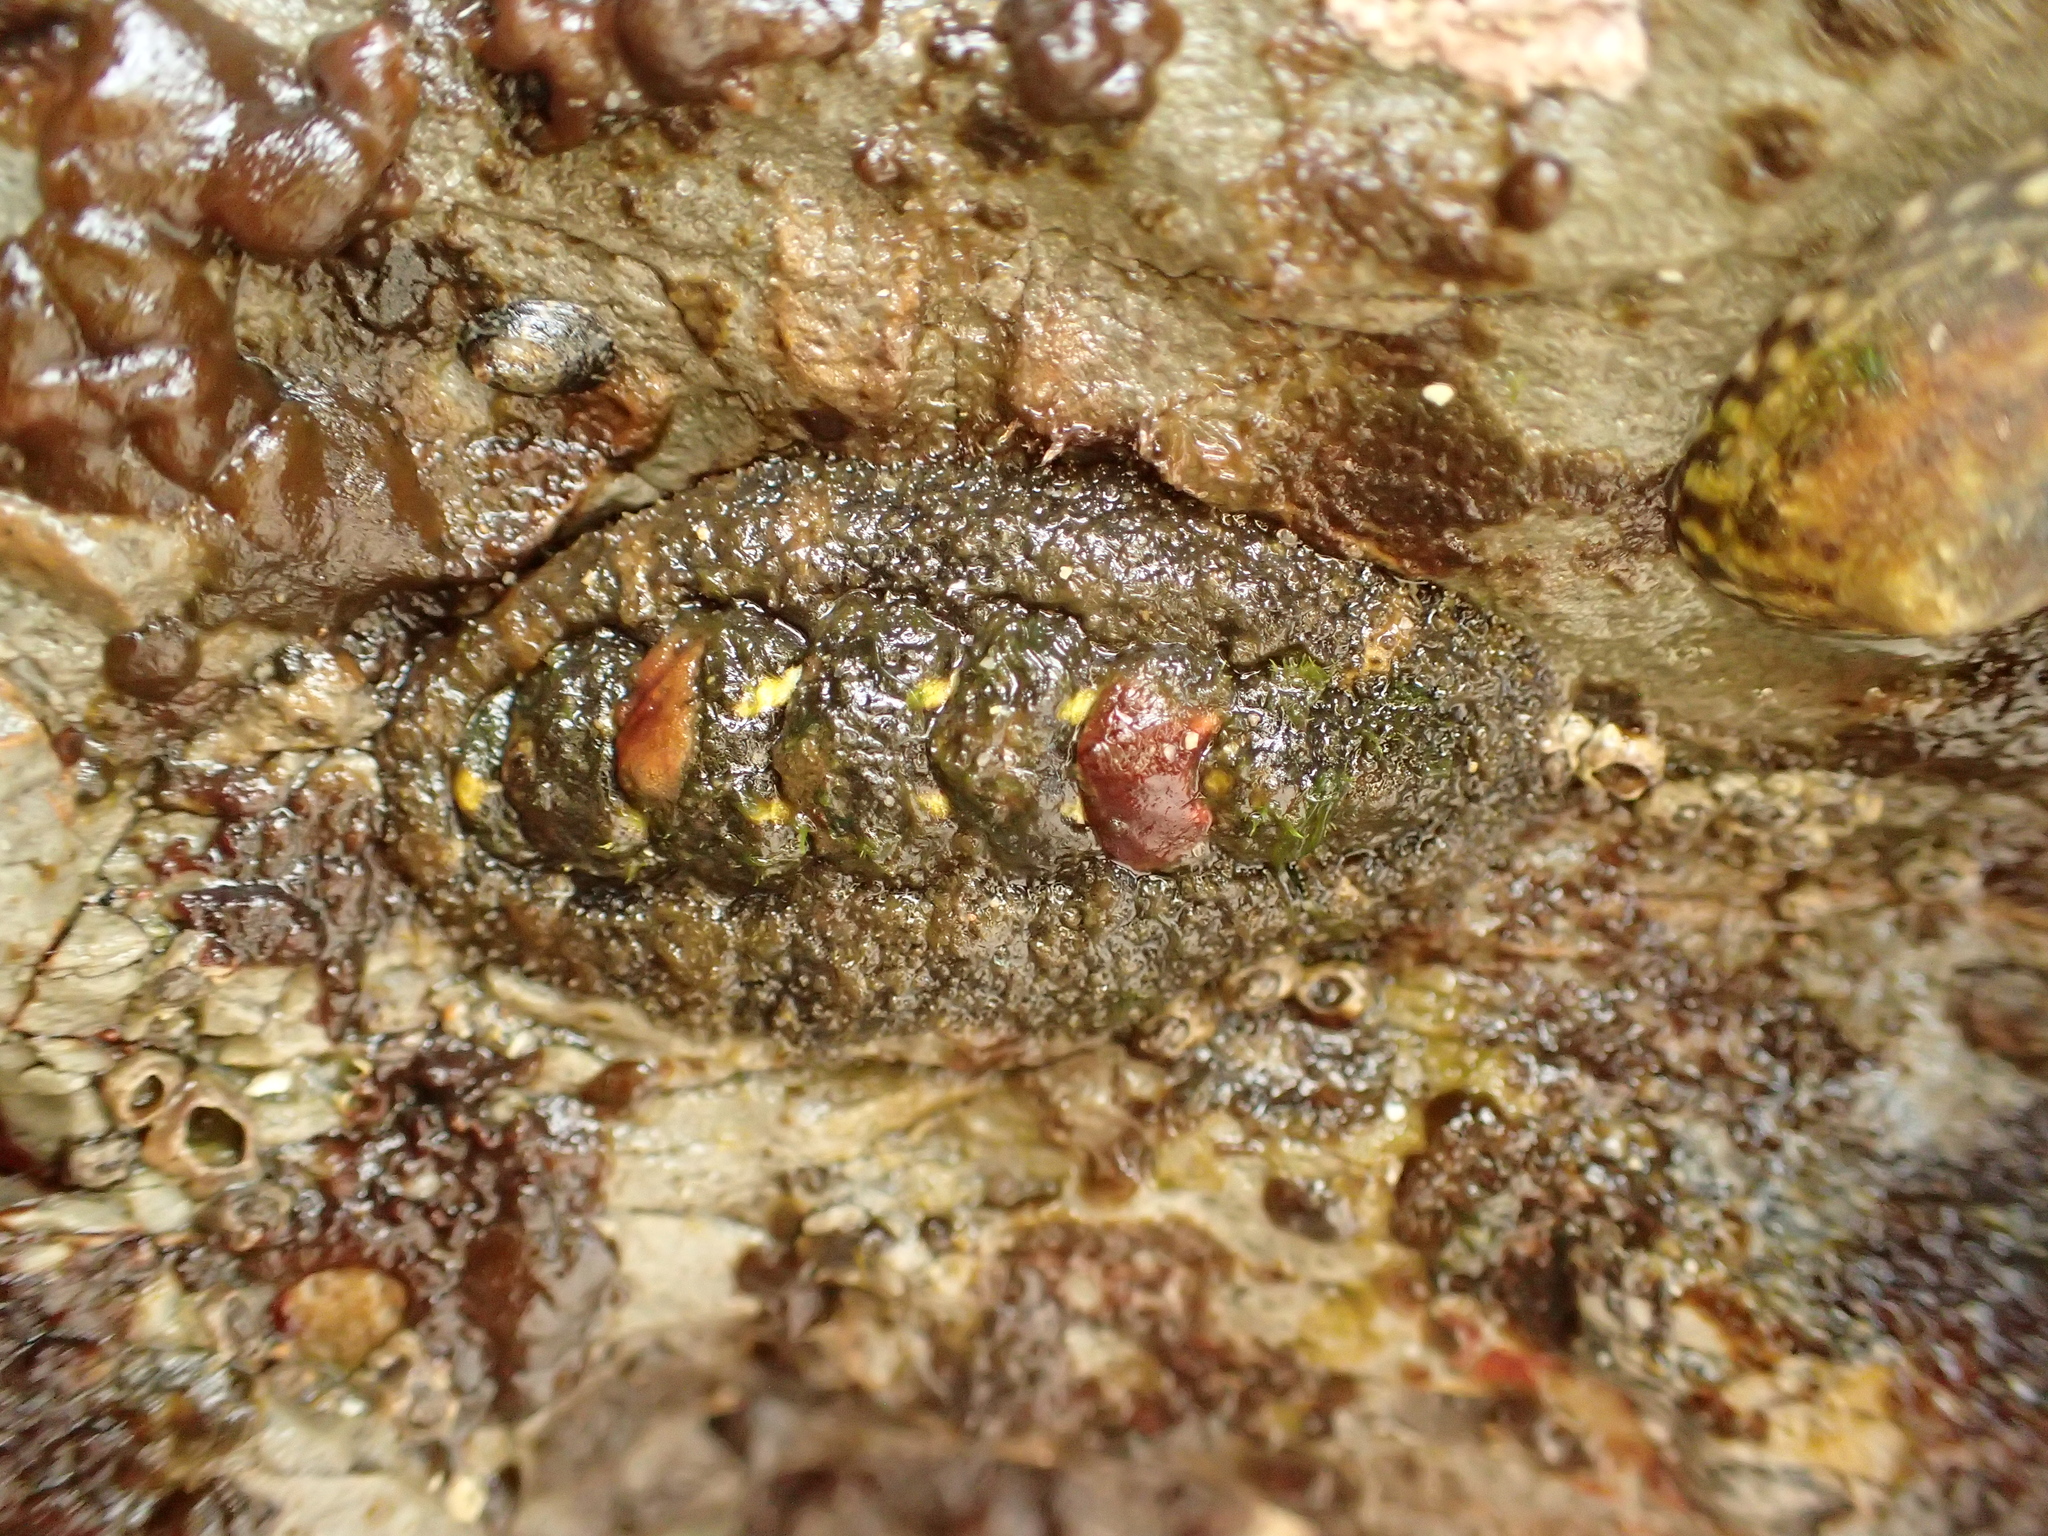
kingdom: Animalia
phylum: Mollusca
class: Polyplacophora
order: Chitonida
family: Tonicellidae
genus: Nuttallina
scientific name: Nuttallina californica
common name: California nuttall chiton
